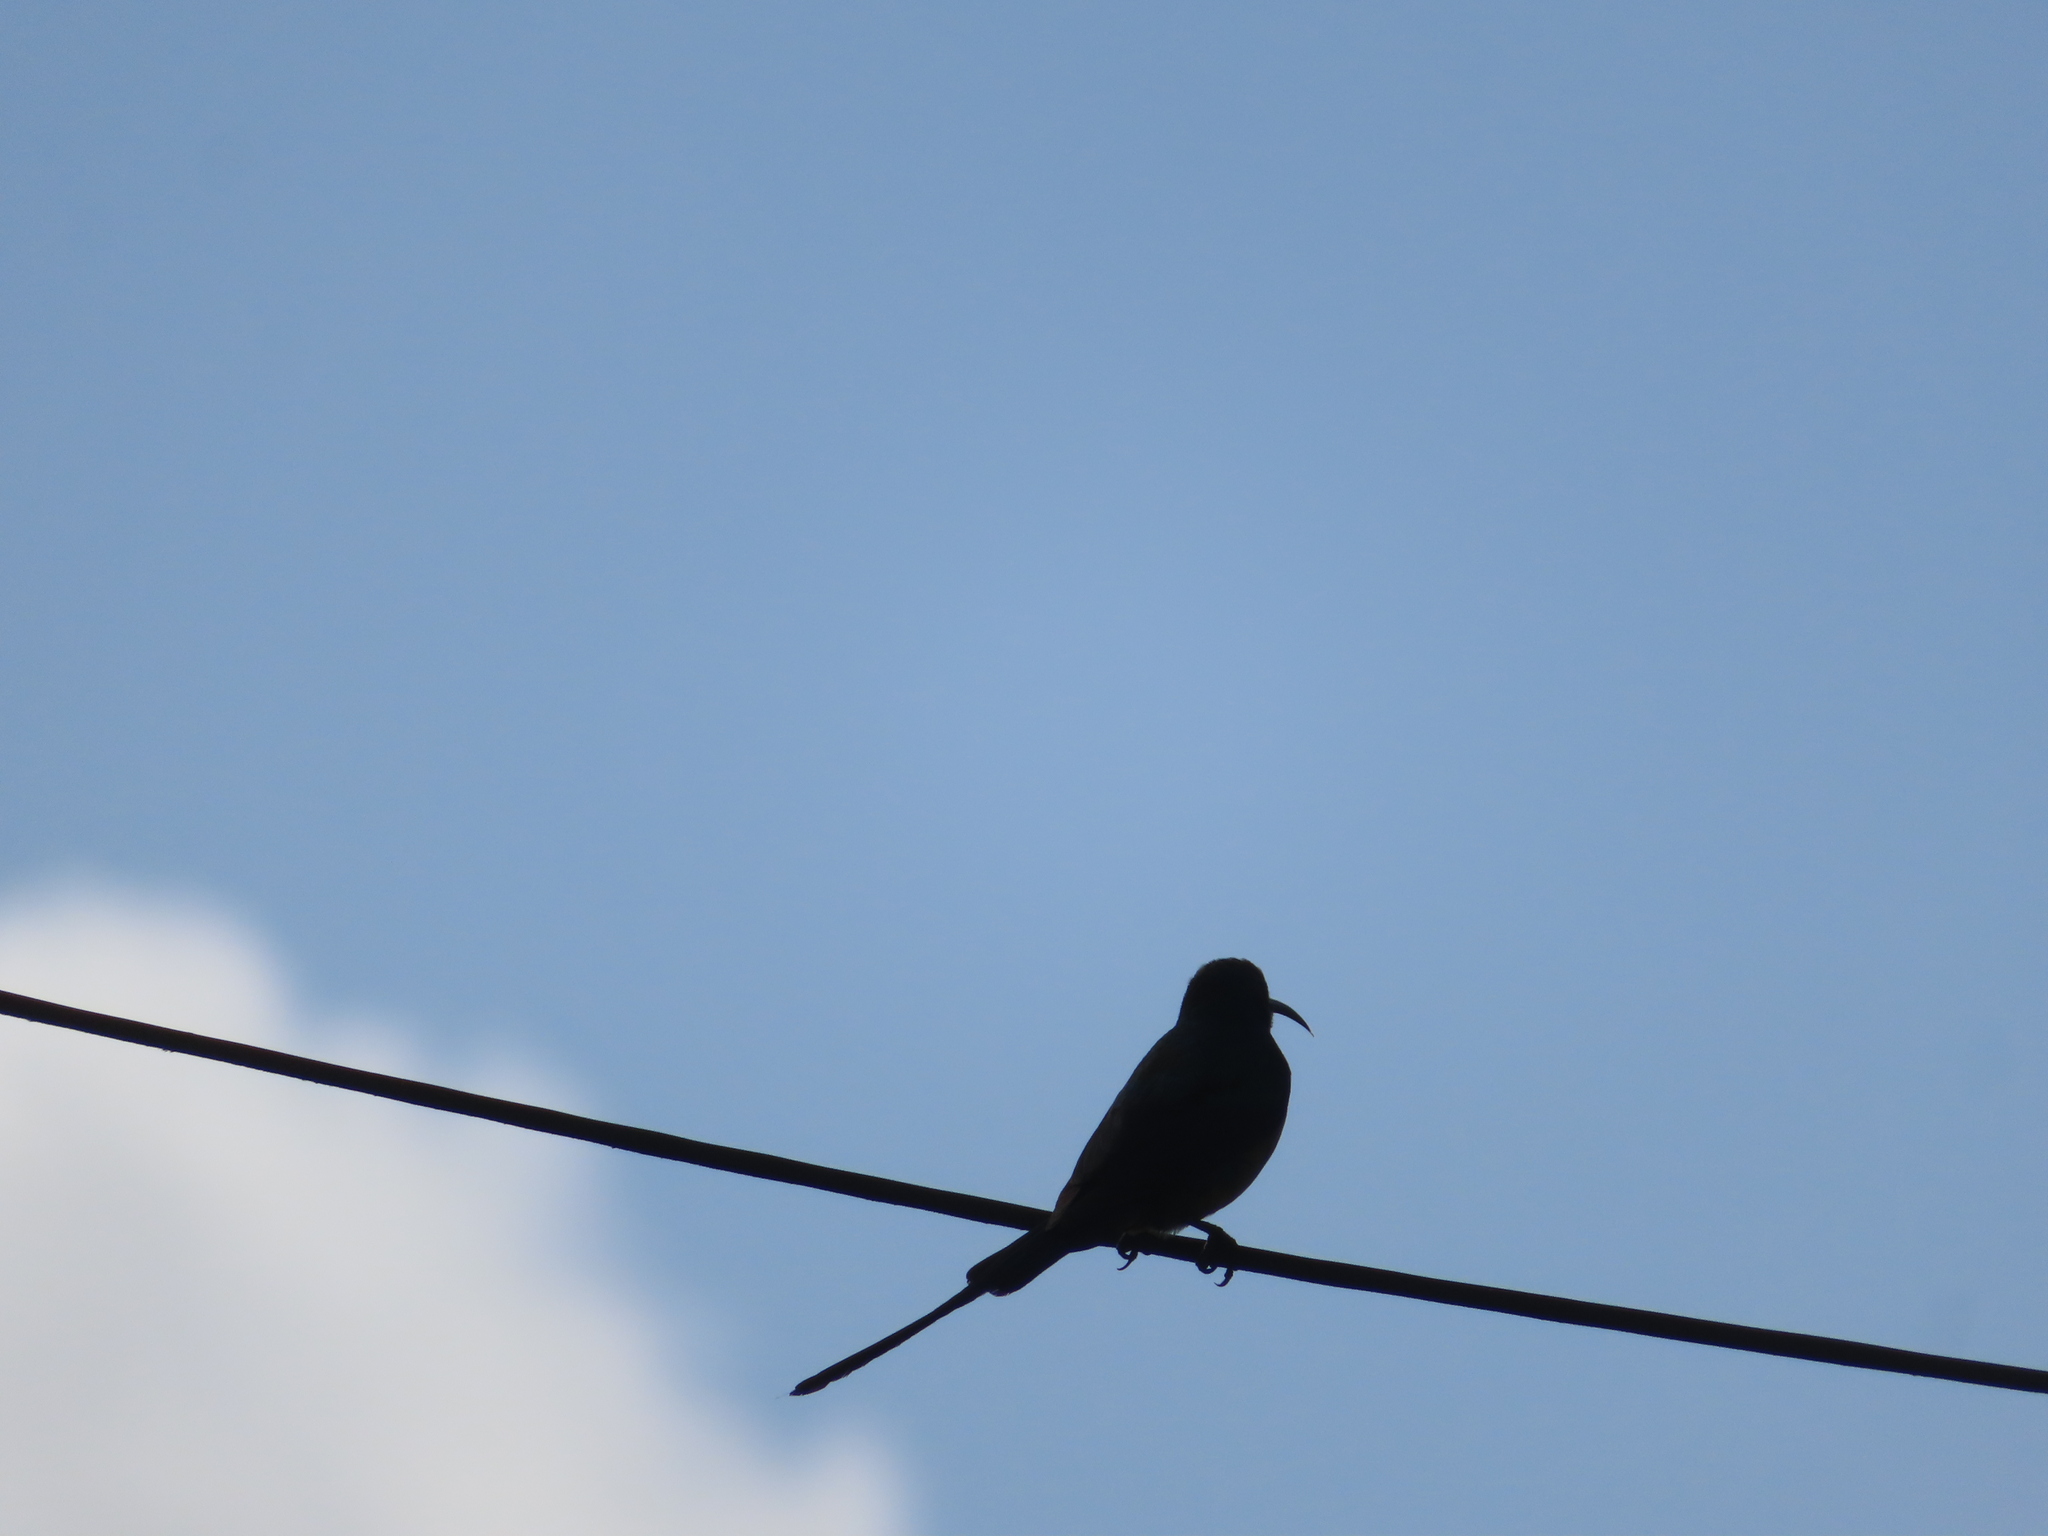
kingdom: Animalia
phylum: Chordata
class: Aves
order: Passeriformes
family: Nectariniidae
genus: Nectarinia
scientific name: Nectarinia famosa
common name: Malachite sunbird
